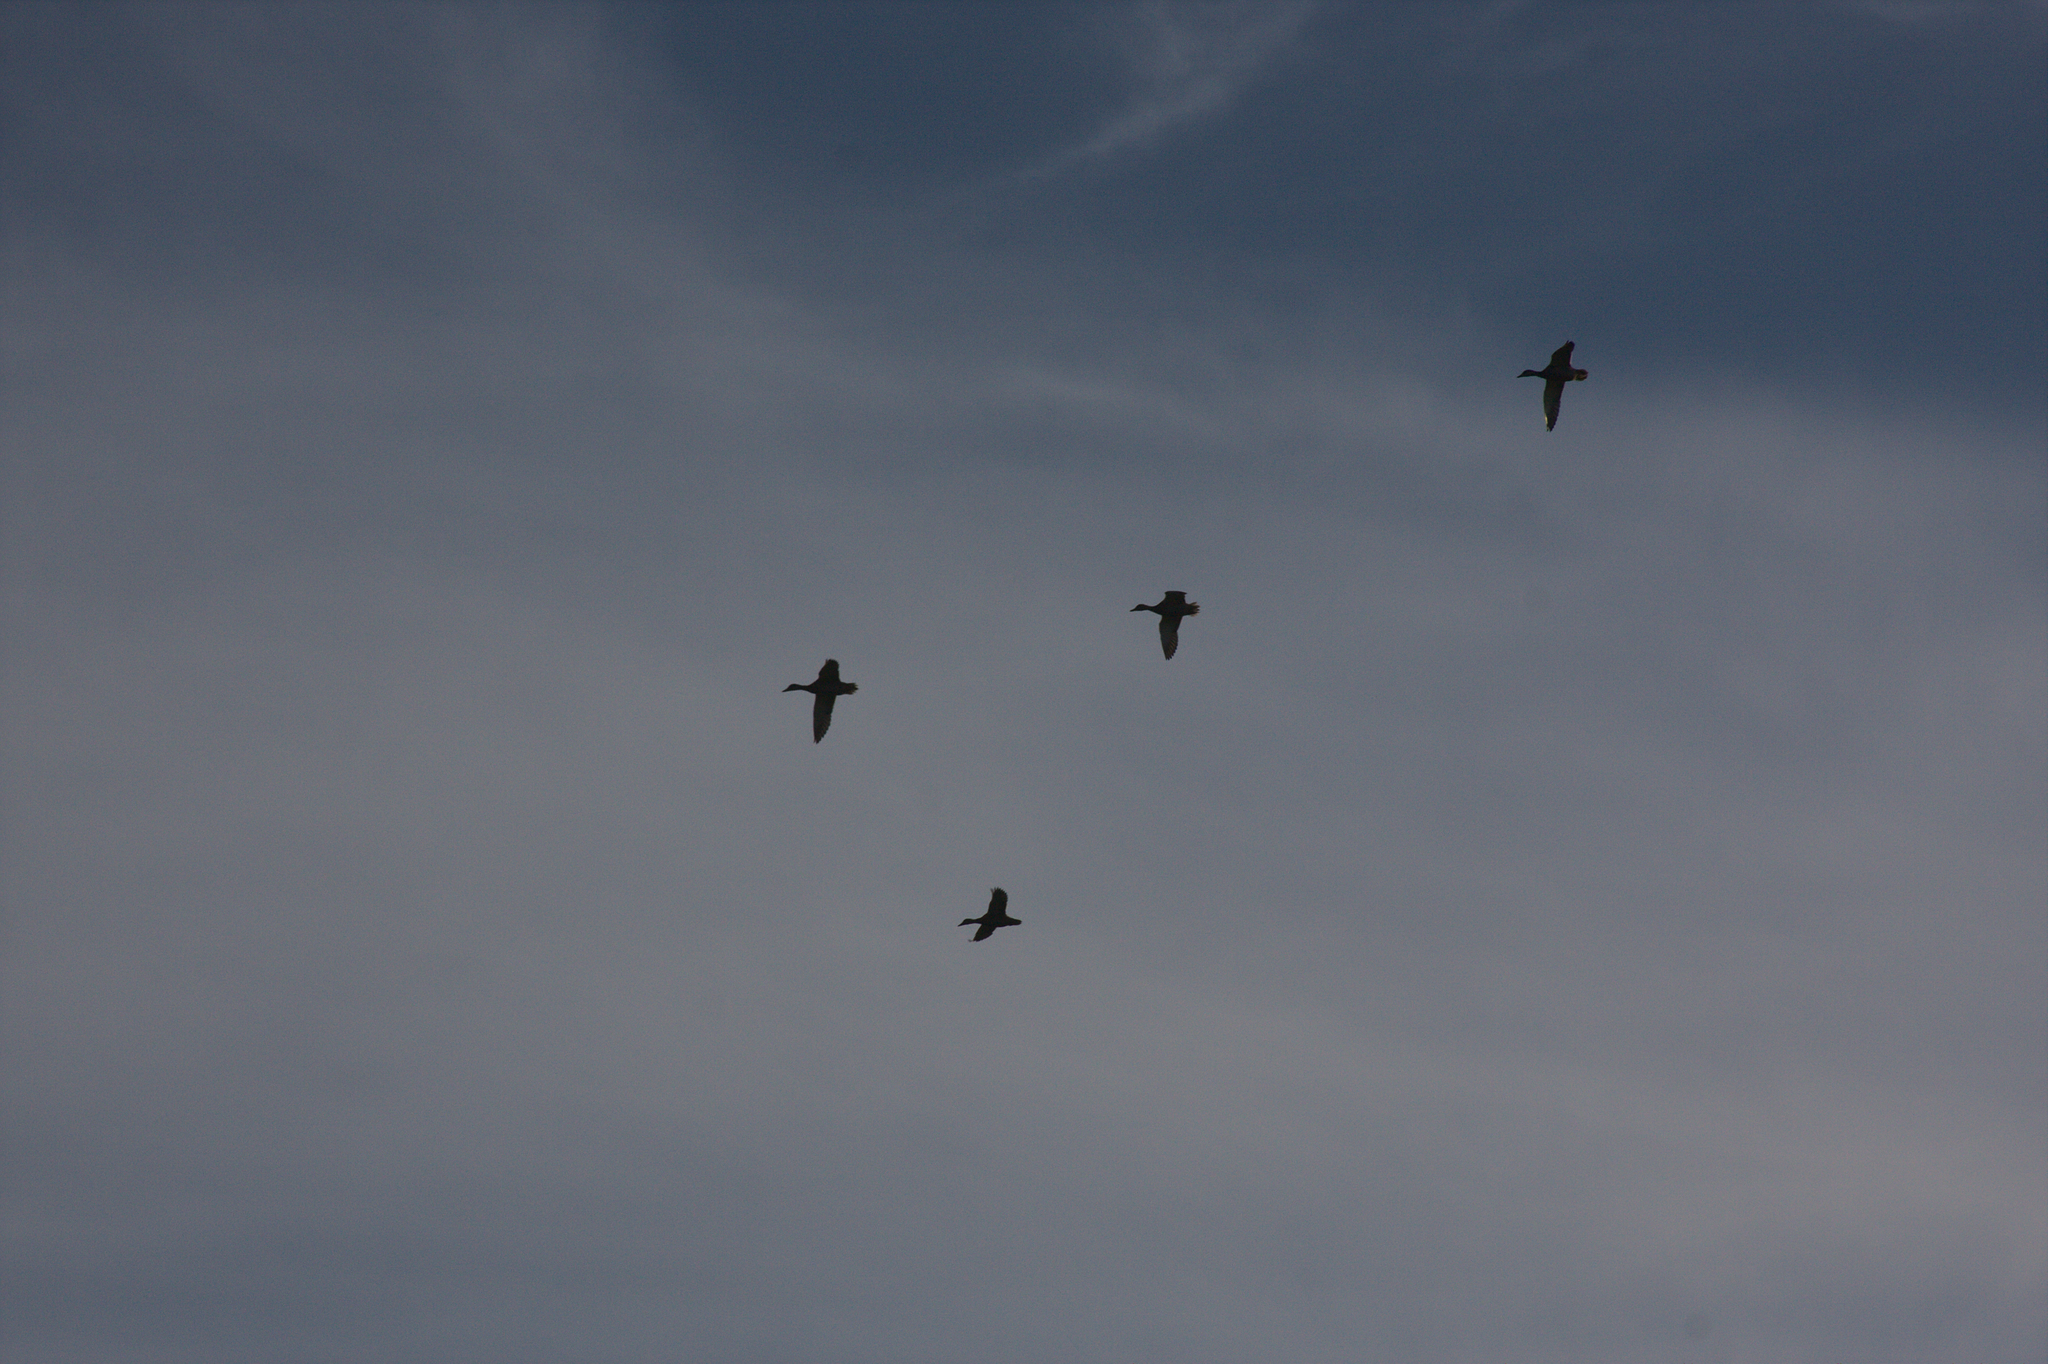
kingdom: Animalia
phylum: Chordata
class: Aves
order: Anseriformes
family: Anatidae
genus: Branta
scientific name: Branta canadensis
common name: Canada goose
